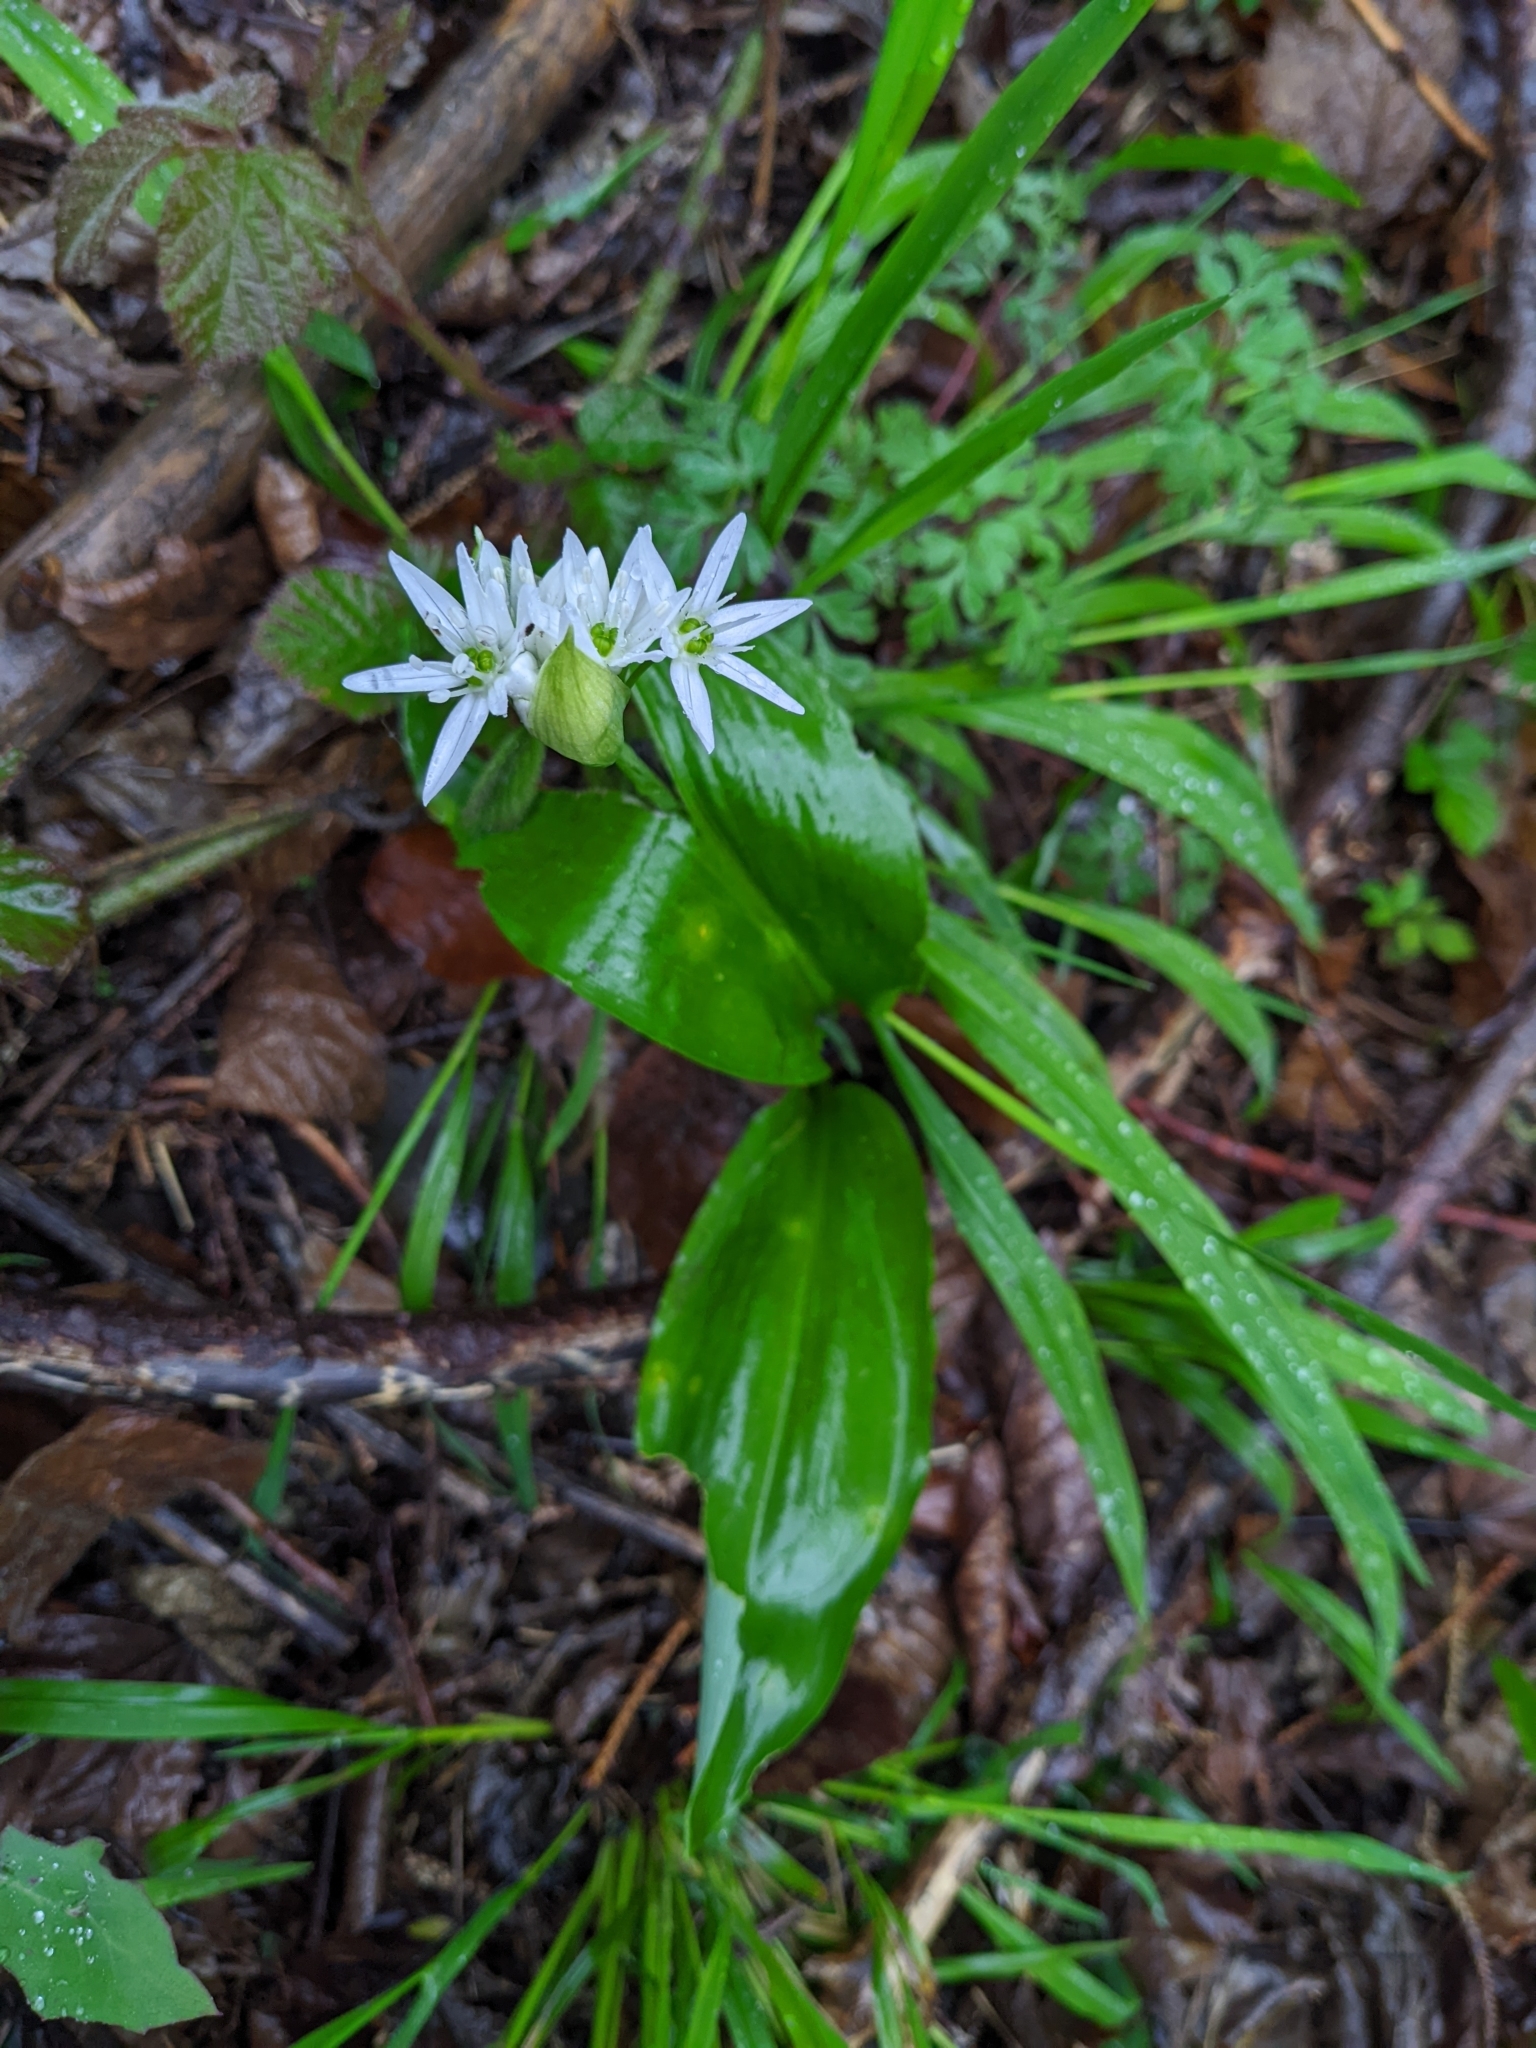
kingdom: Plantae
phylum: Tracheophyta
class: Liliopsida
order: Asparagales
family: Amaryllidaceae
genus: Allium
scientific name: Allium ursinum
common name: Ramsons
